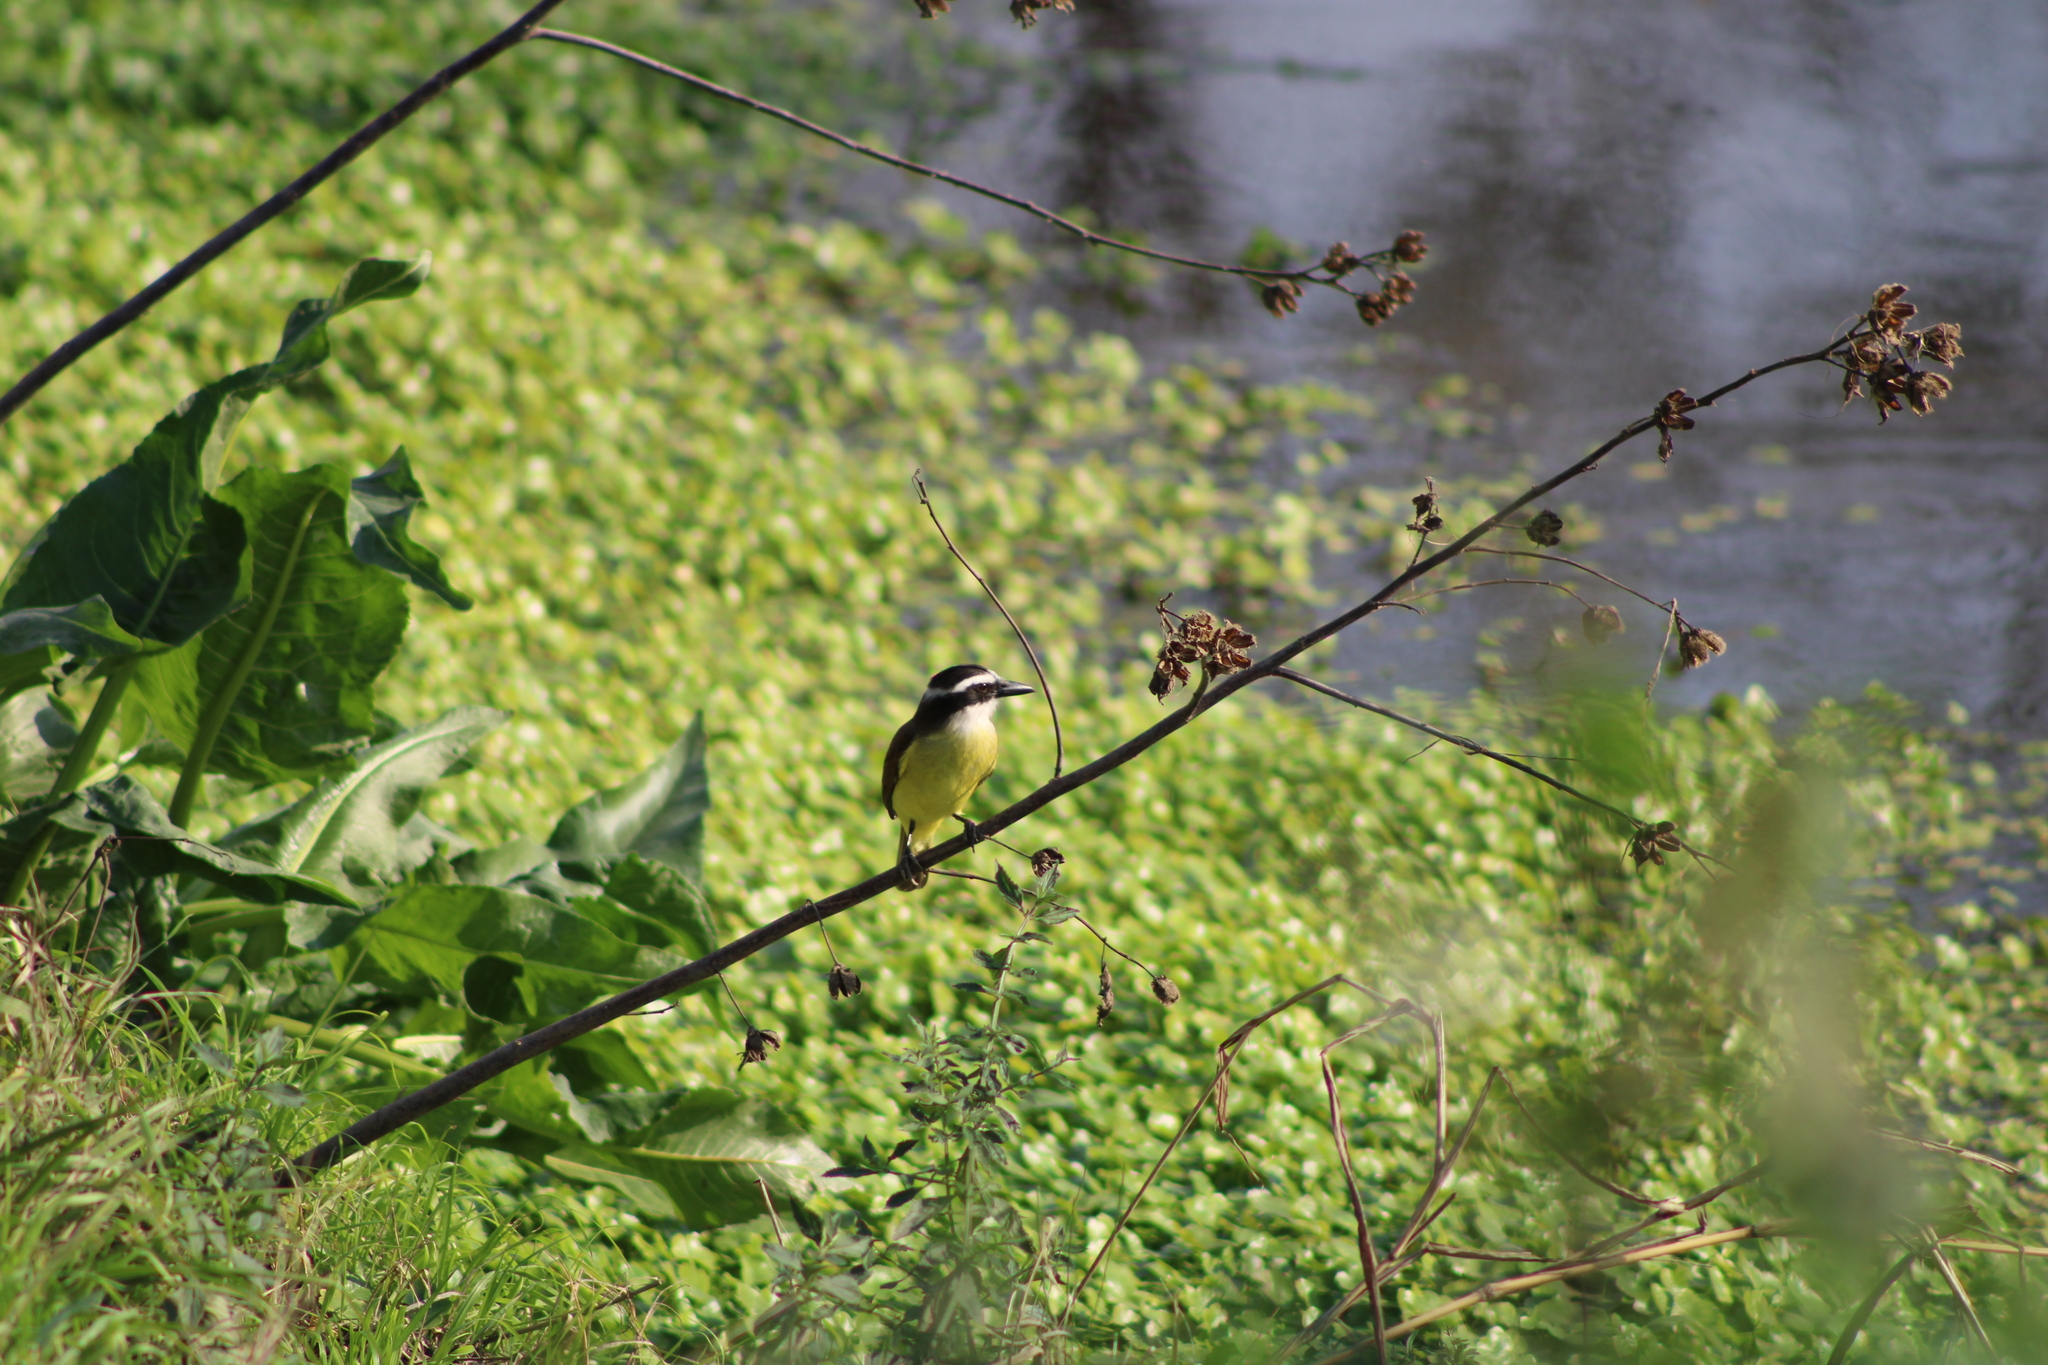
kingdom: Animalia
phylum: Chordata
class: Aves
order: Passeriformes
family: Tyrannidae
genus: Pitangus
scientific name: Pitangus sulphuratus
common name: Great kiskadee
